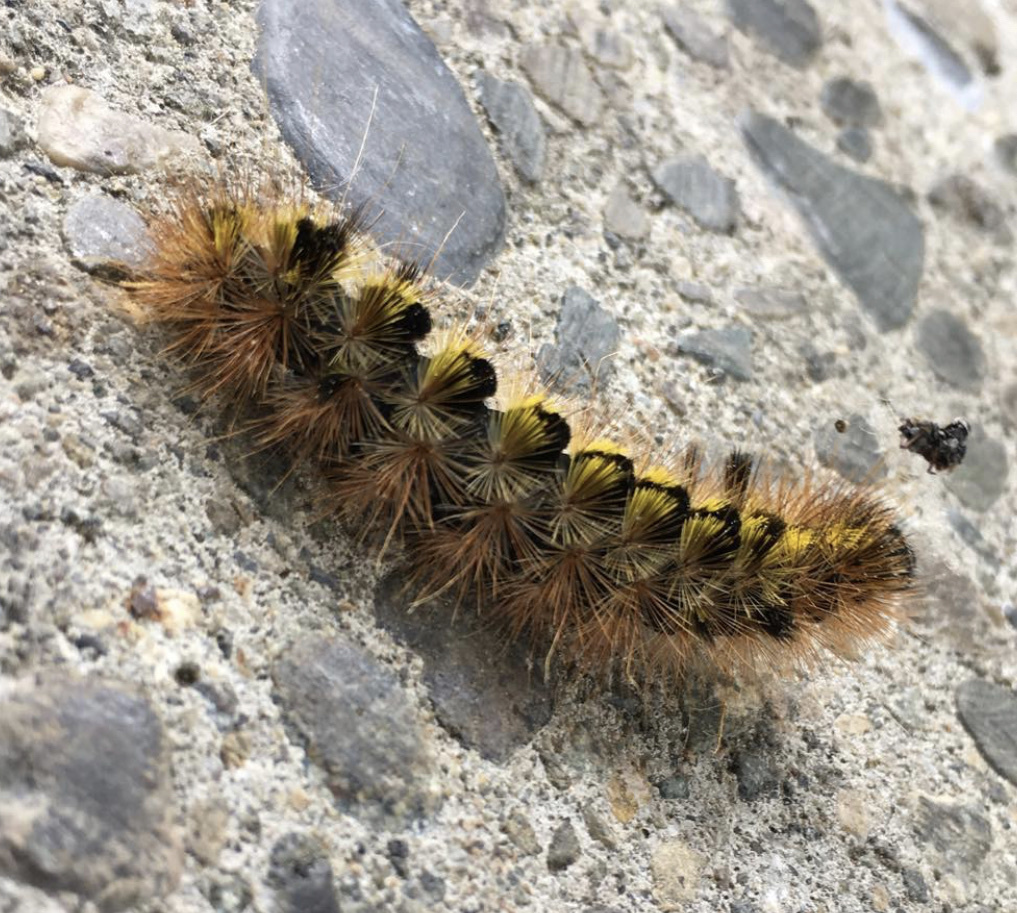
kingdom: Animalia
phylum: Arthropoda
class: Insecta
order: Lepidoptera
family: Erebidae
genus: Lophocampa
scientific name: Lophocampa argentata
